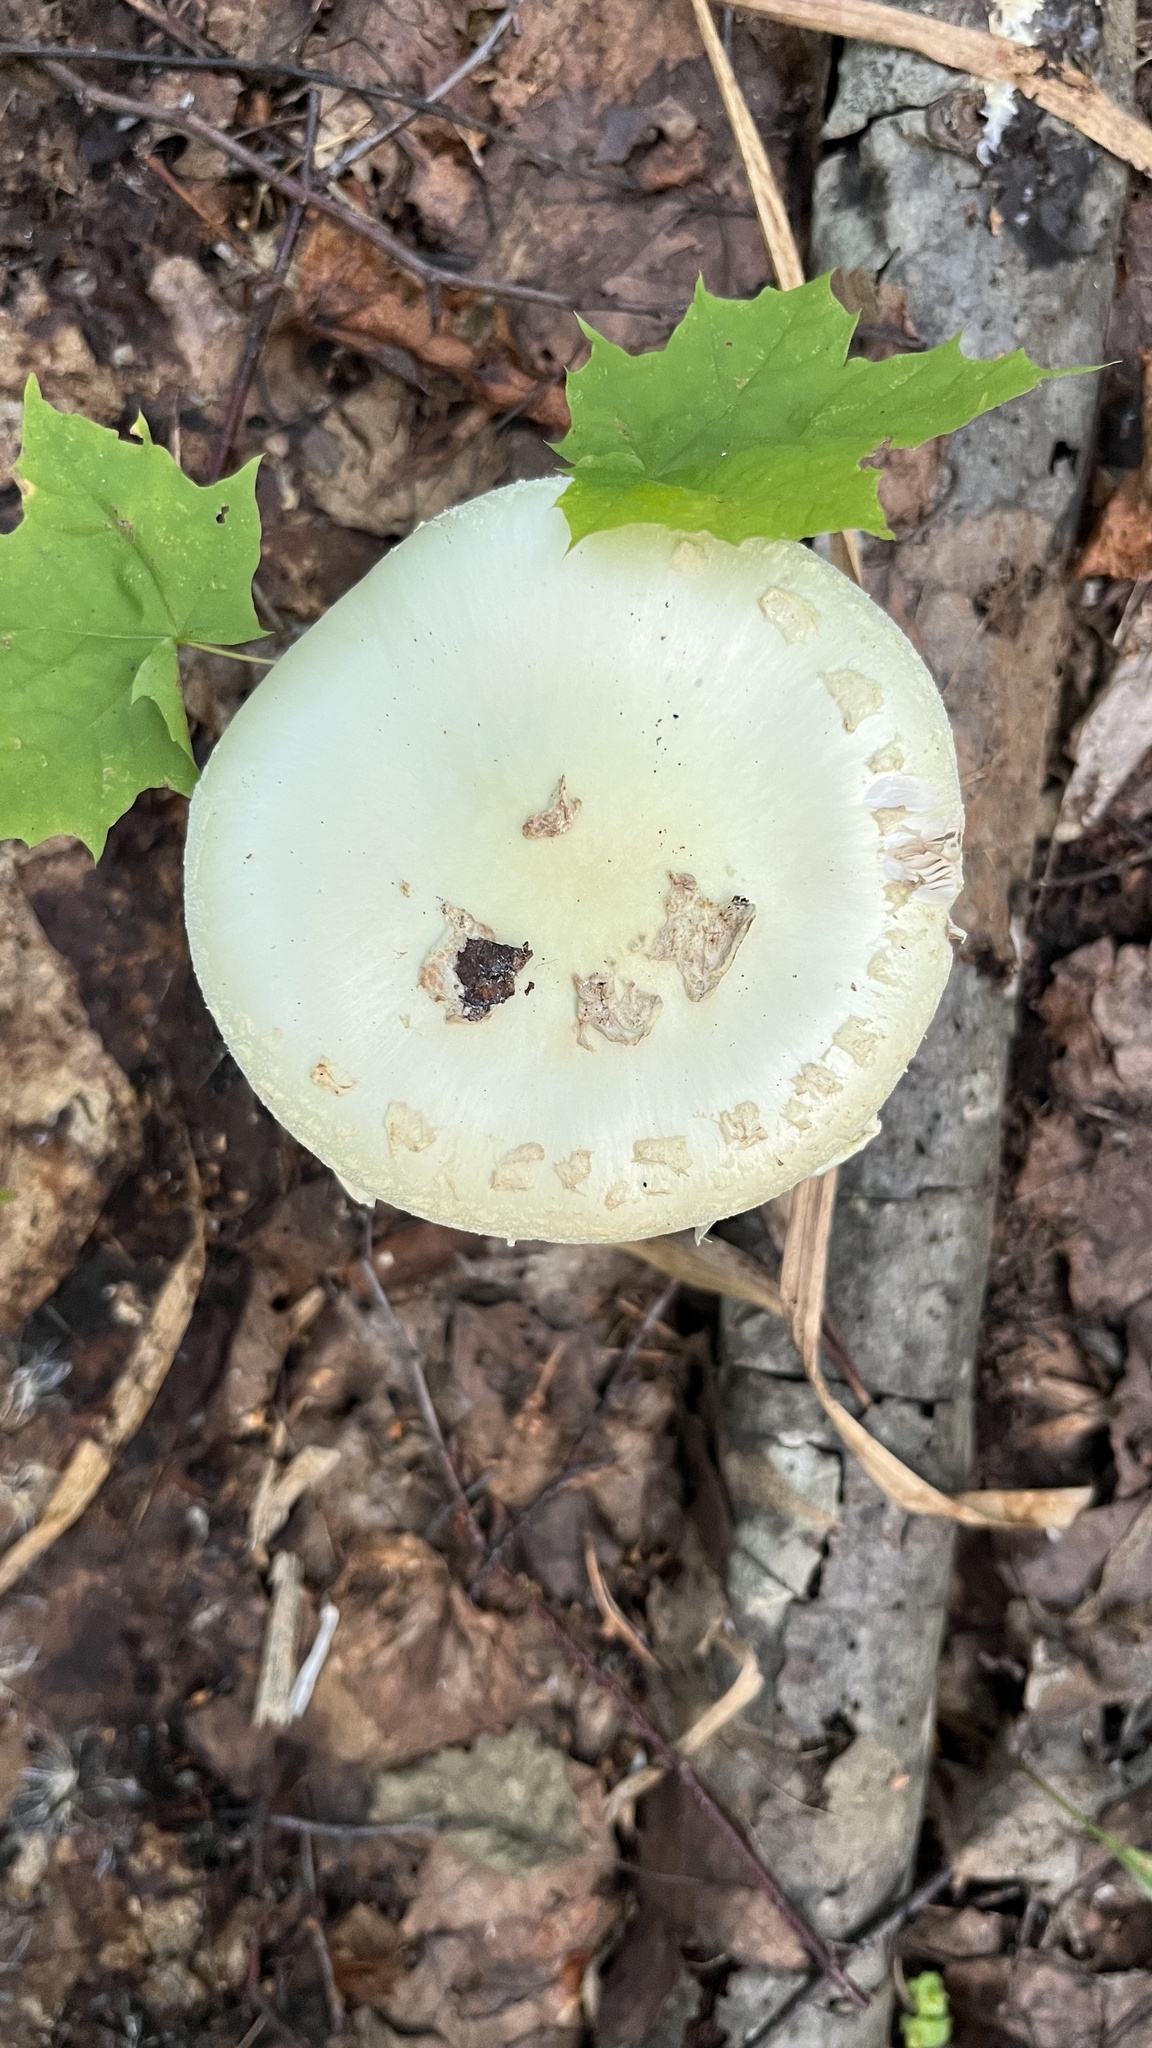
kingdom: Fungi
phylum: Basidiomycota
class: Agaricomycetes
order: Agaricales
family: Amanitaceae
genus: Amanita
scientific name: Amanita citrina
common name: False death-cap
